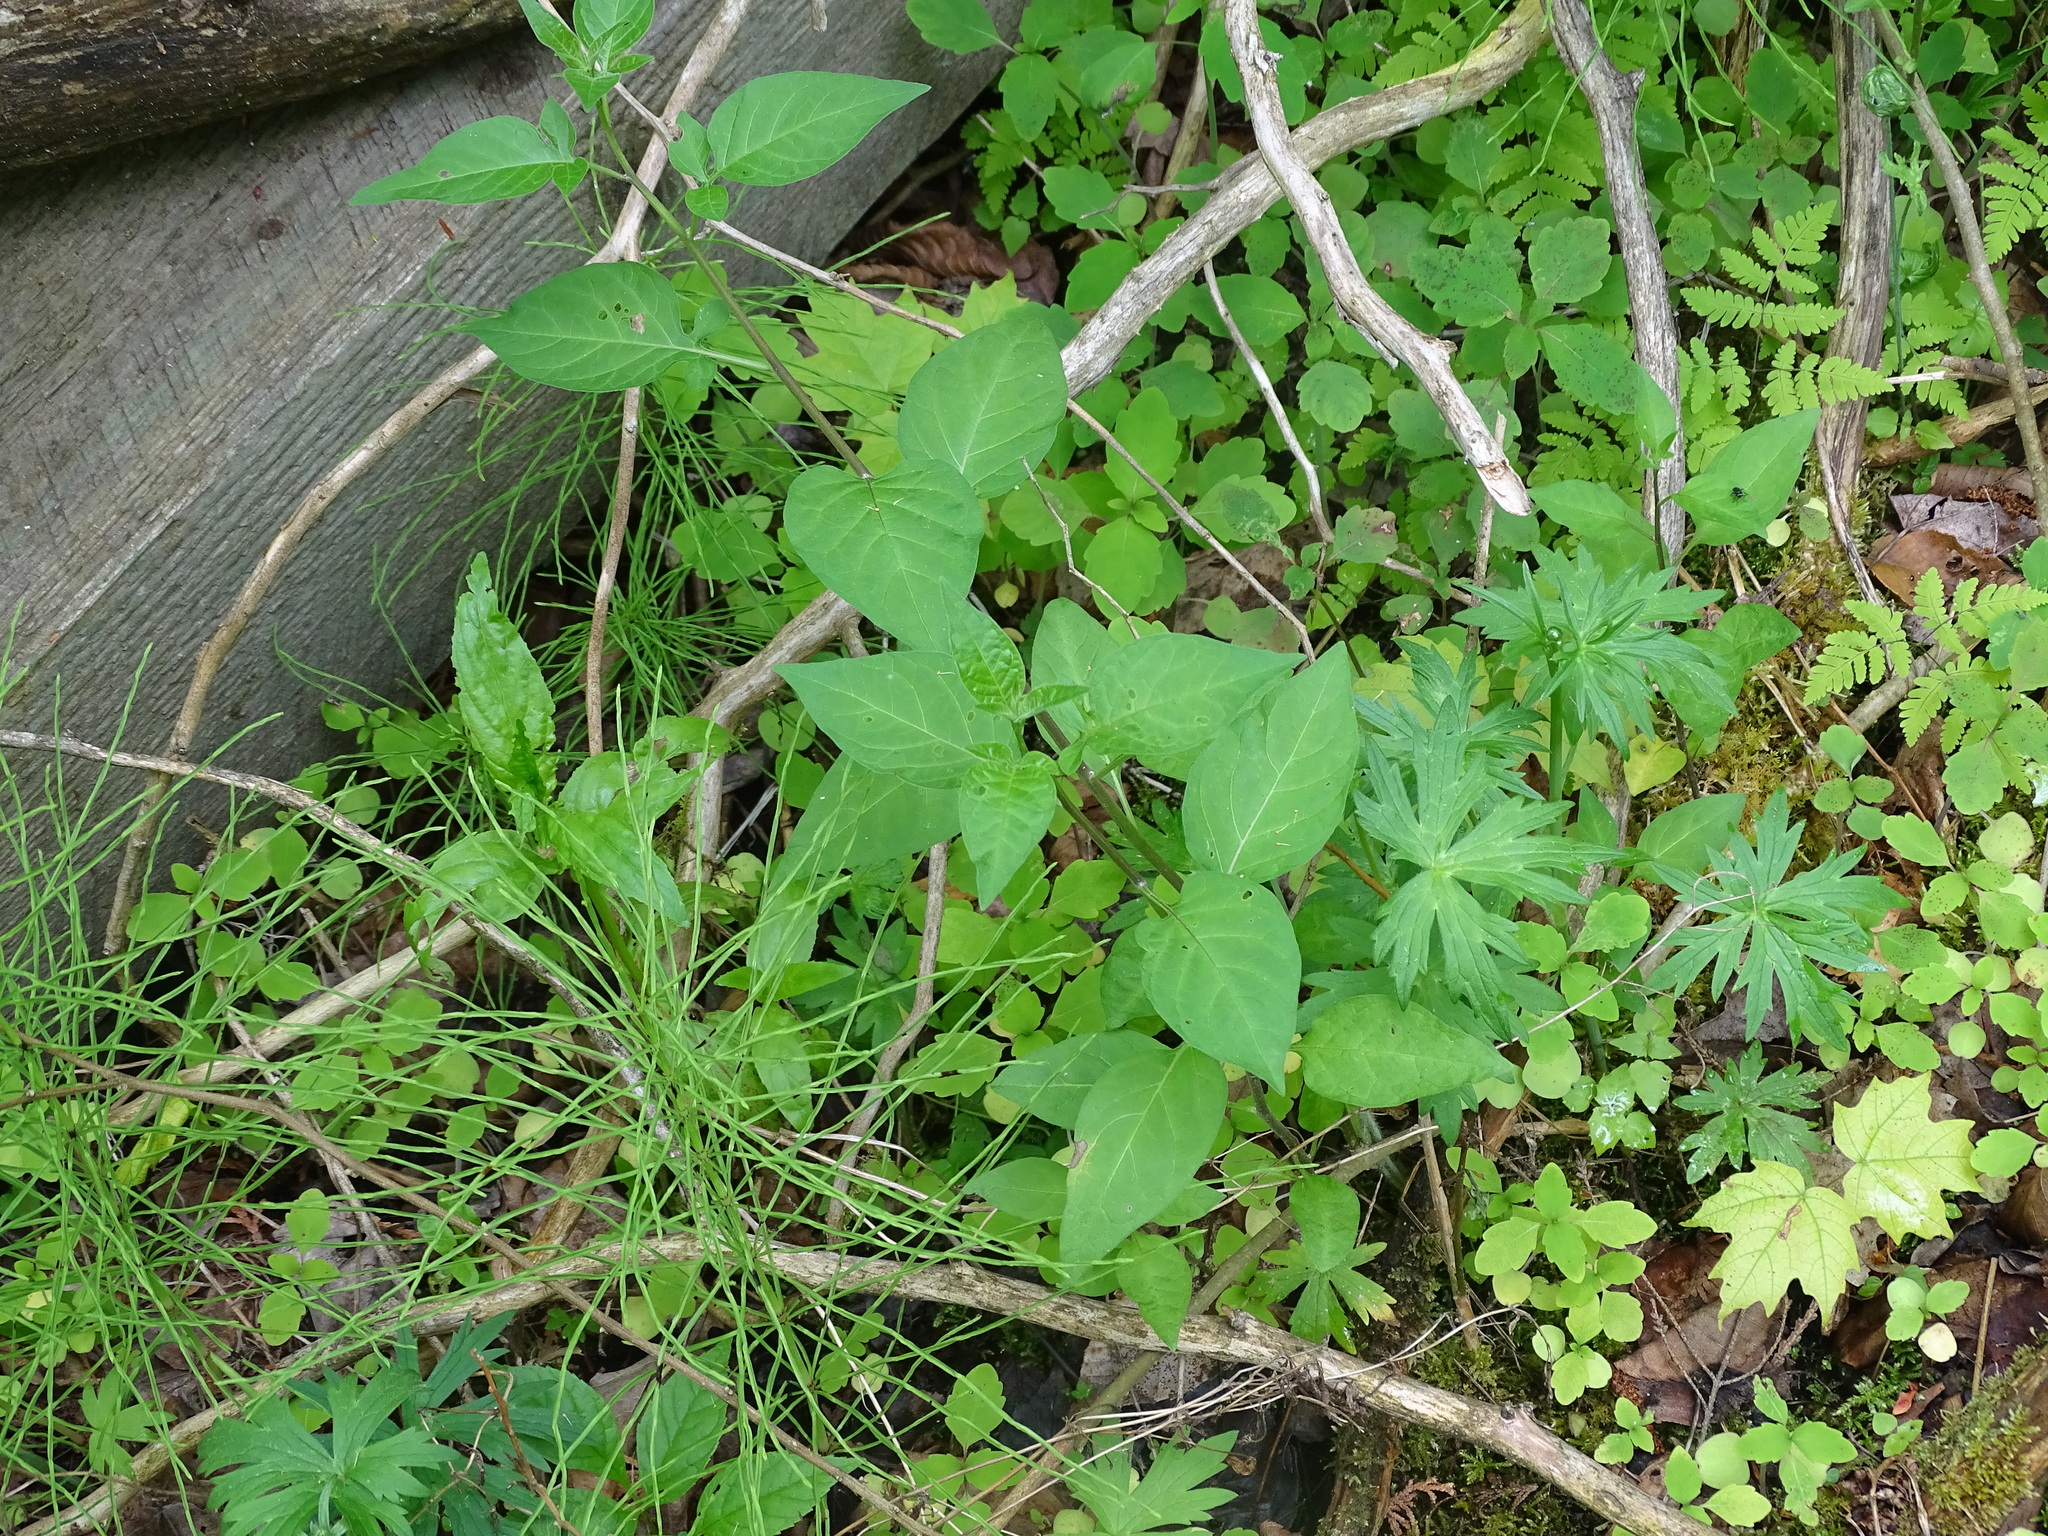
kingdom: Plantae
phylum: Tracheophyta
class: Magnoliopsida
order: Solanales
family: Solanaceae
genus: Solanum
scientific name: Solanum dulcamara
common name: Climbing nightshade
